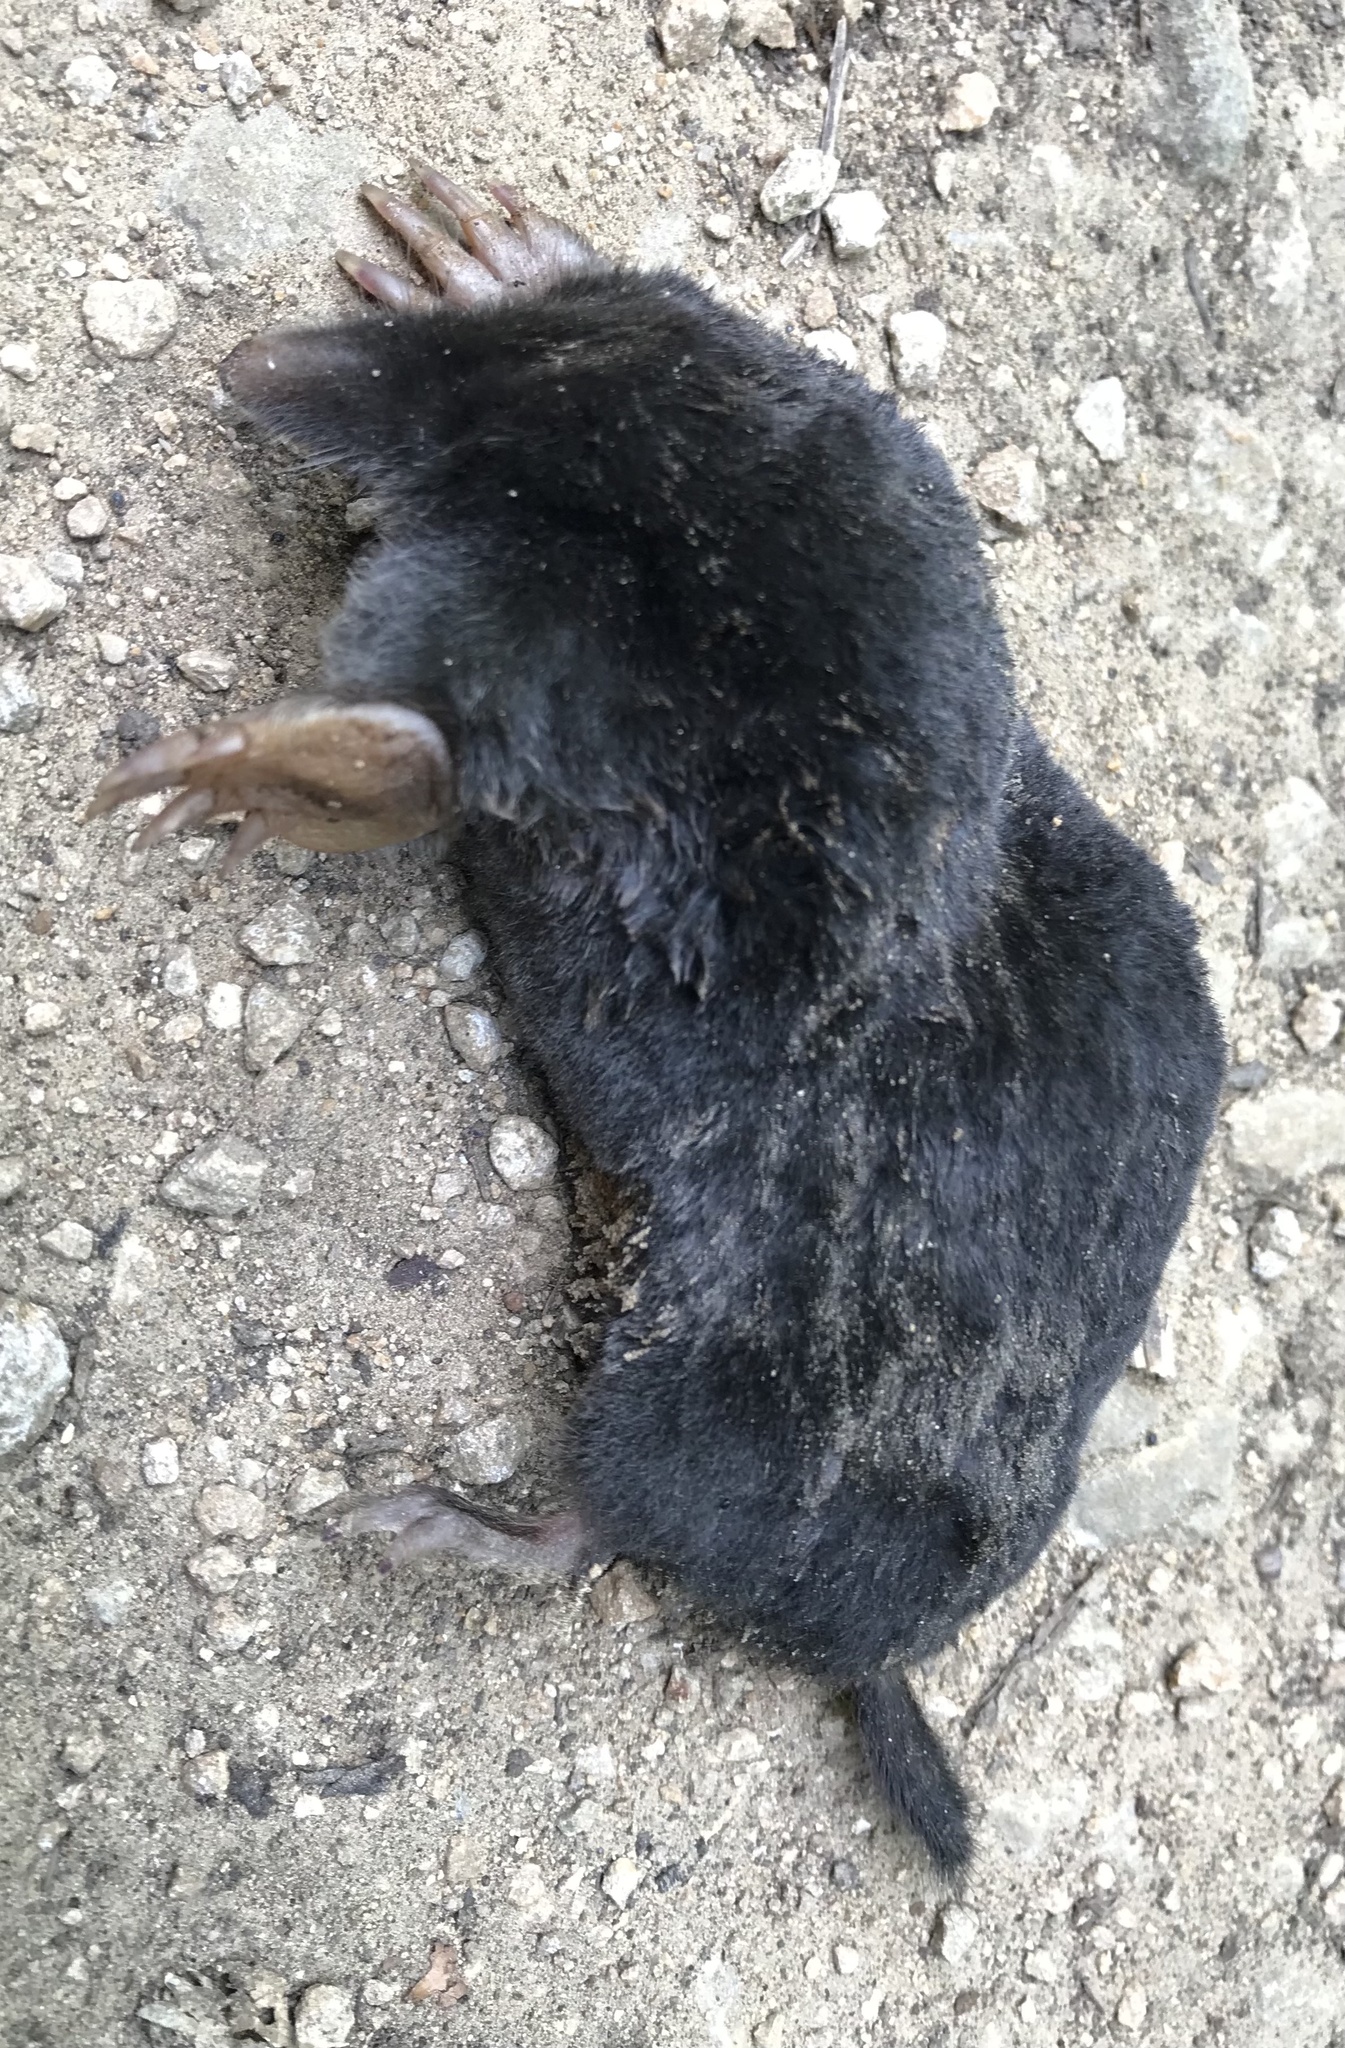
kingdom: Animalia
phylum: Chordata
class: Mammalia
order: Soricomorpha
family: Talpidae
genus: Talpa
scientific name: Talpa europaea
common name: European mole
